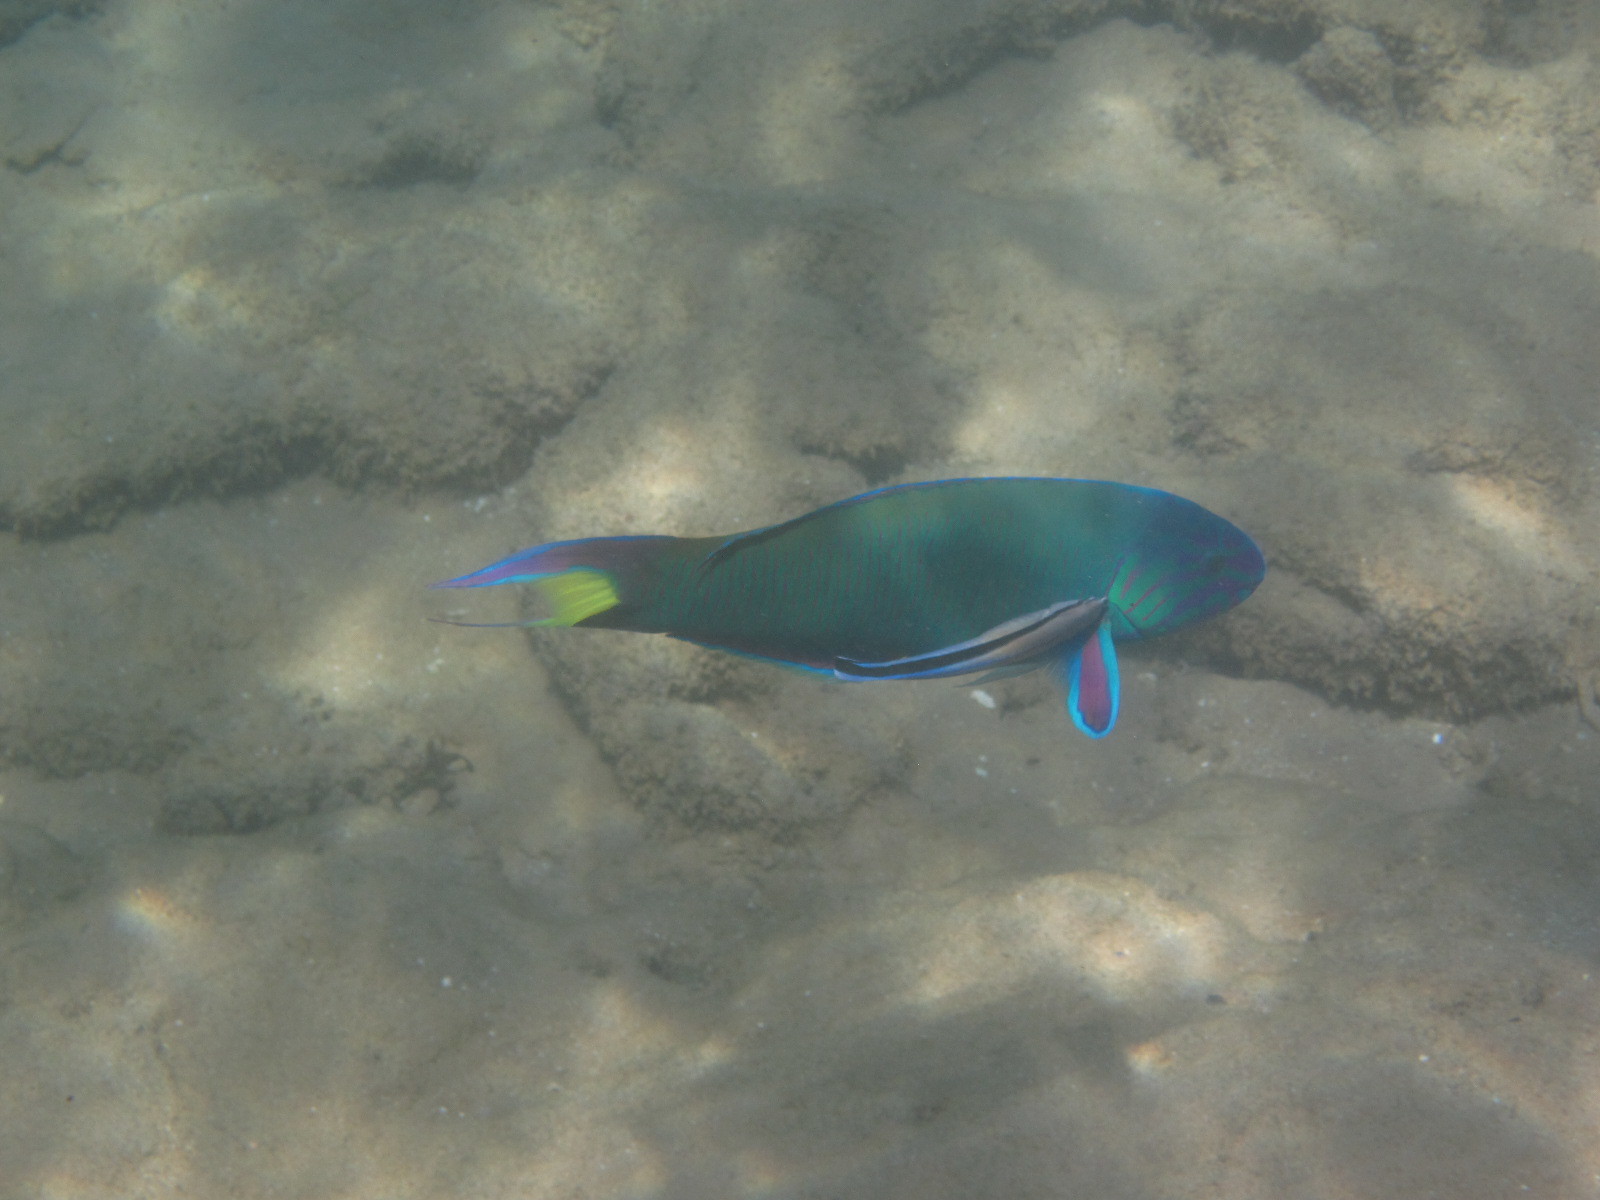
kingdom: Animalia
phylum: Chordata
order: Perciformes
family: Labridae
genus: Thalassoma
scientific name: Thalassoma lunare
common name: Blue wrasse
